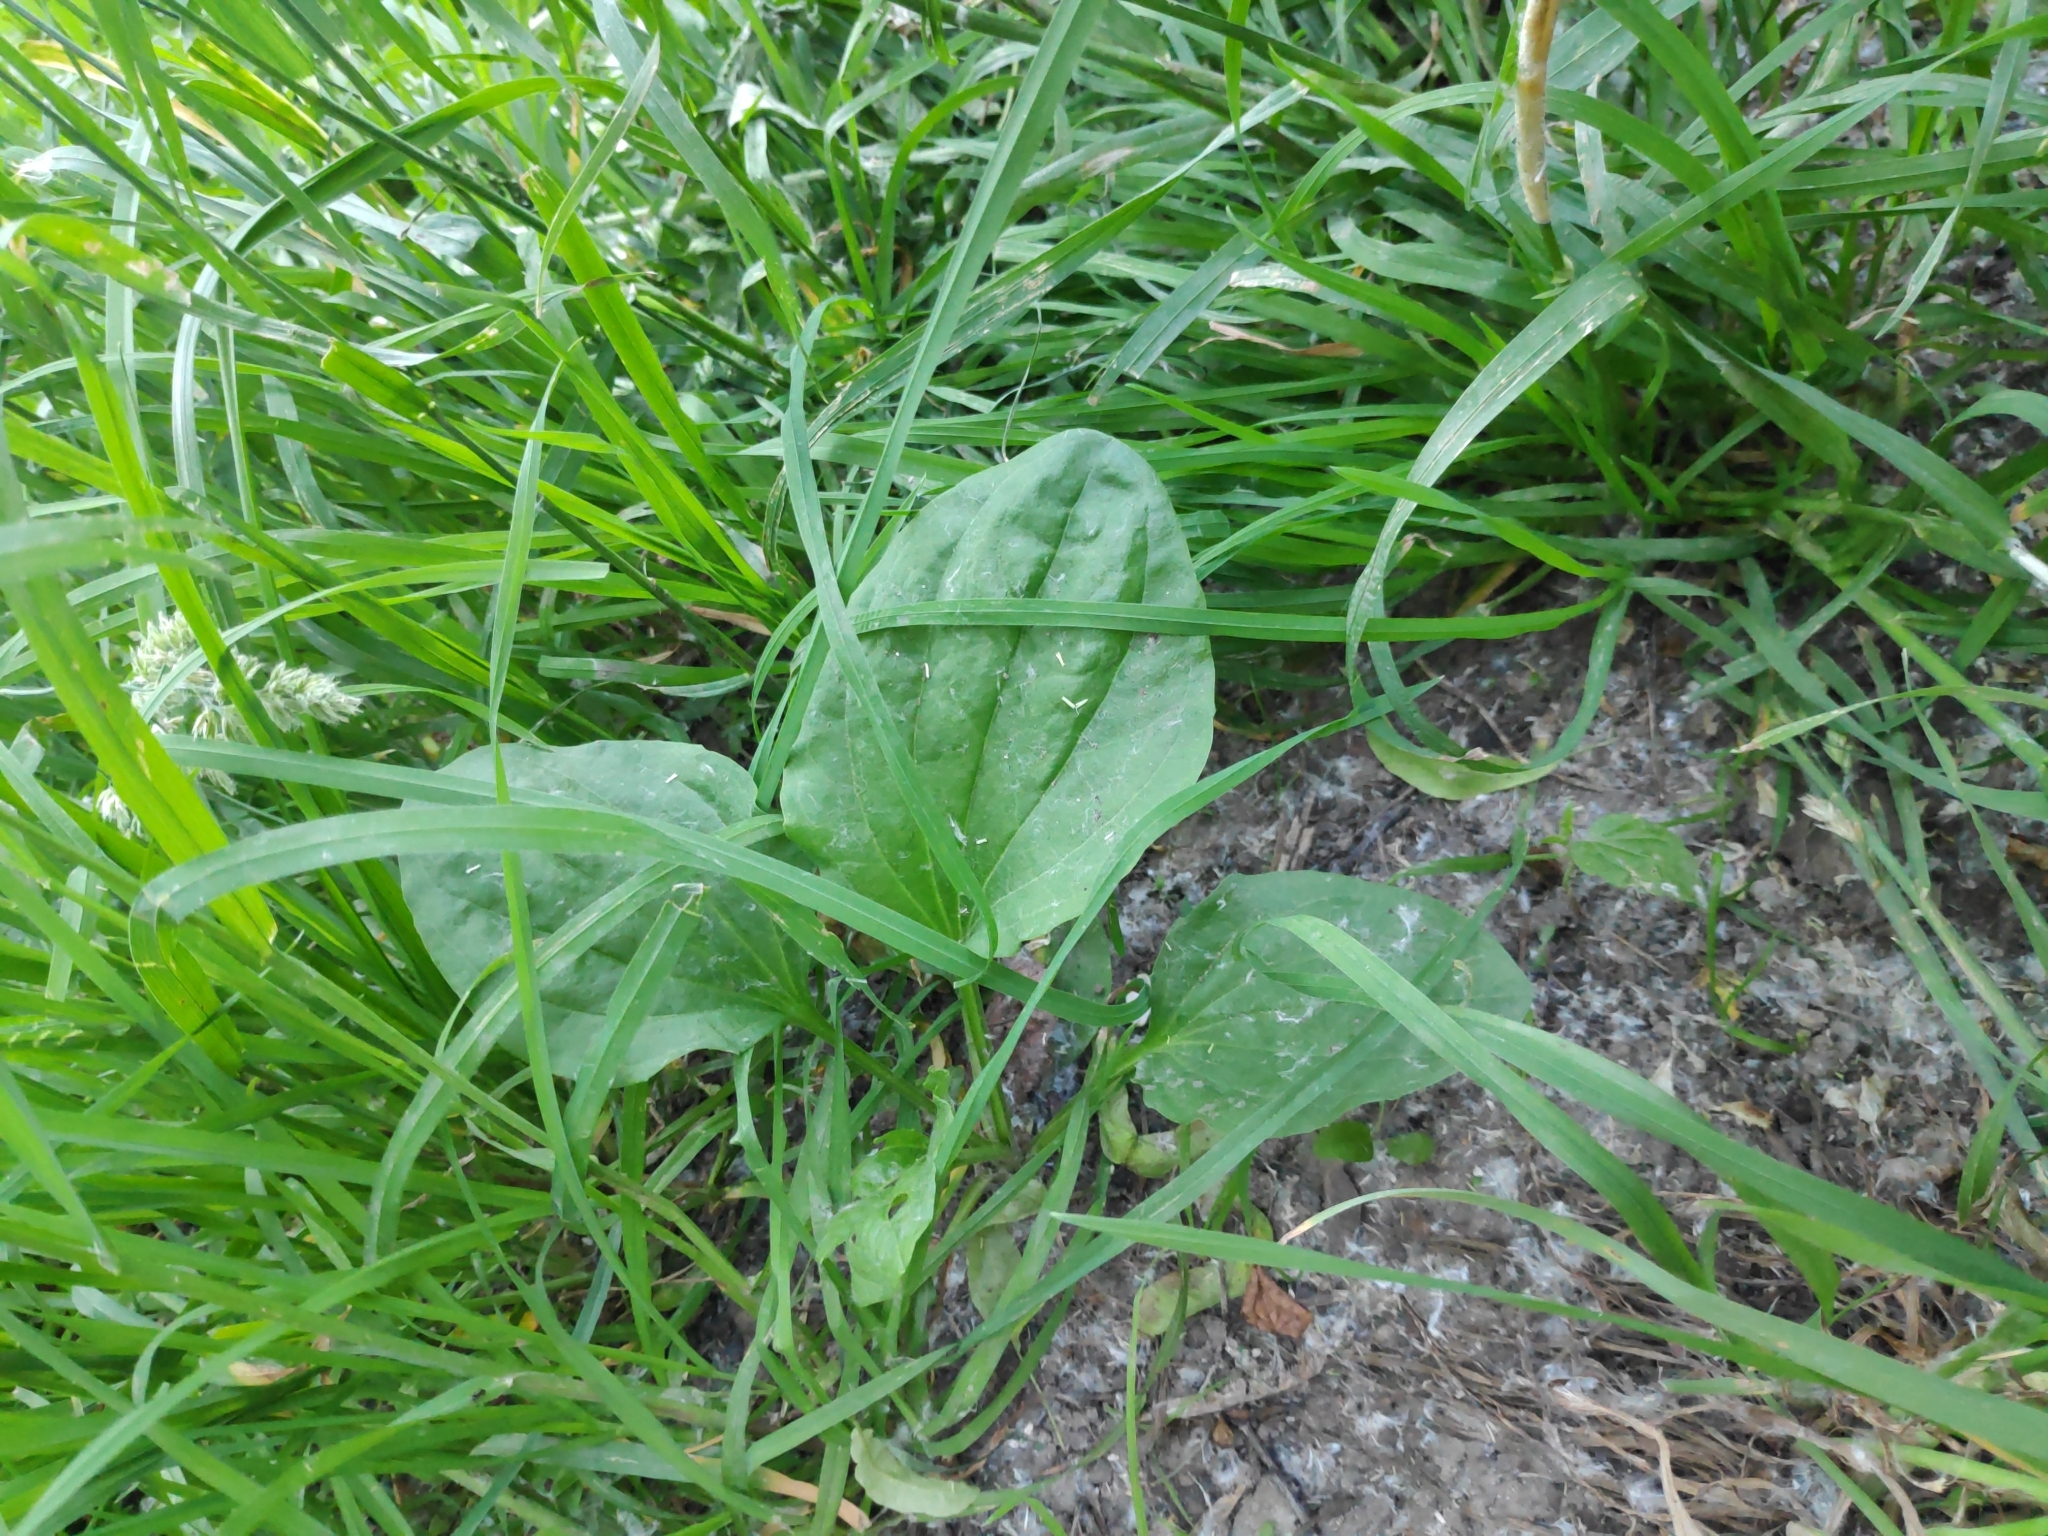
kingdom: Plantae
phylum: Tracheophyta
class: Magnoliopsida
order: Lamiales
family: Plantaginaceae
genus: Plantago
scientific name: Plantago major
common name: Common plantain
